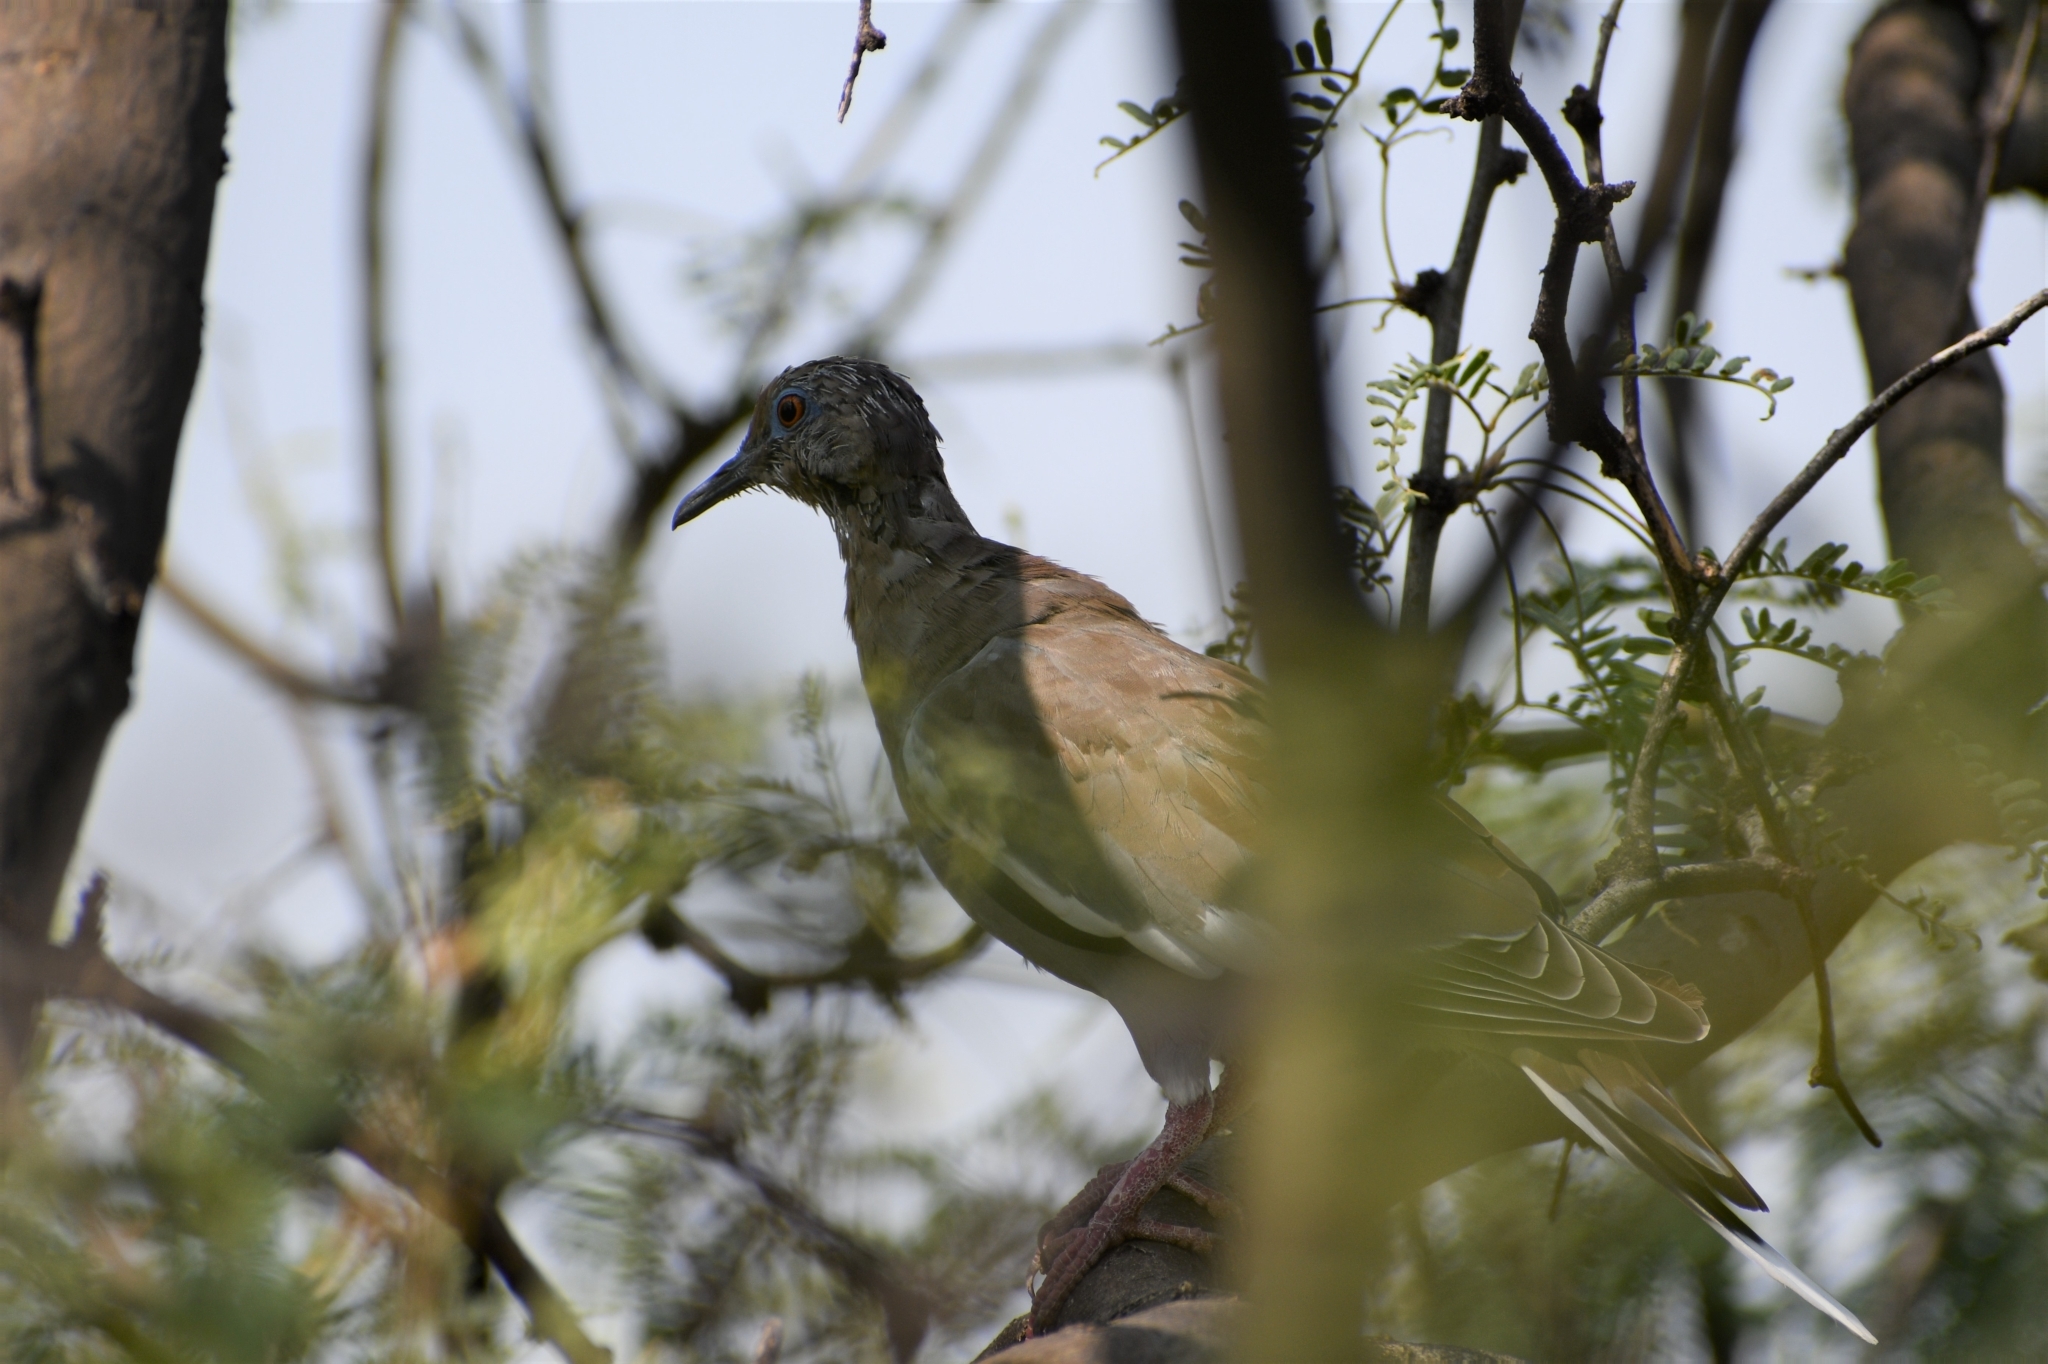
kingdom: Animalia
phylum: Chordata
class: Aves
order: Columbiformes
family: Columbidae
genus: Zenaida
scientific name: Zenaida asiatica
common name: White-winged dove
